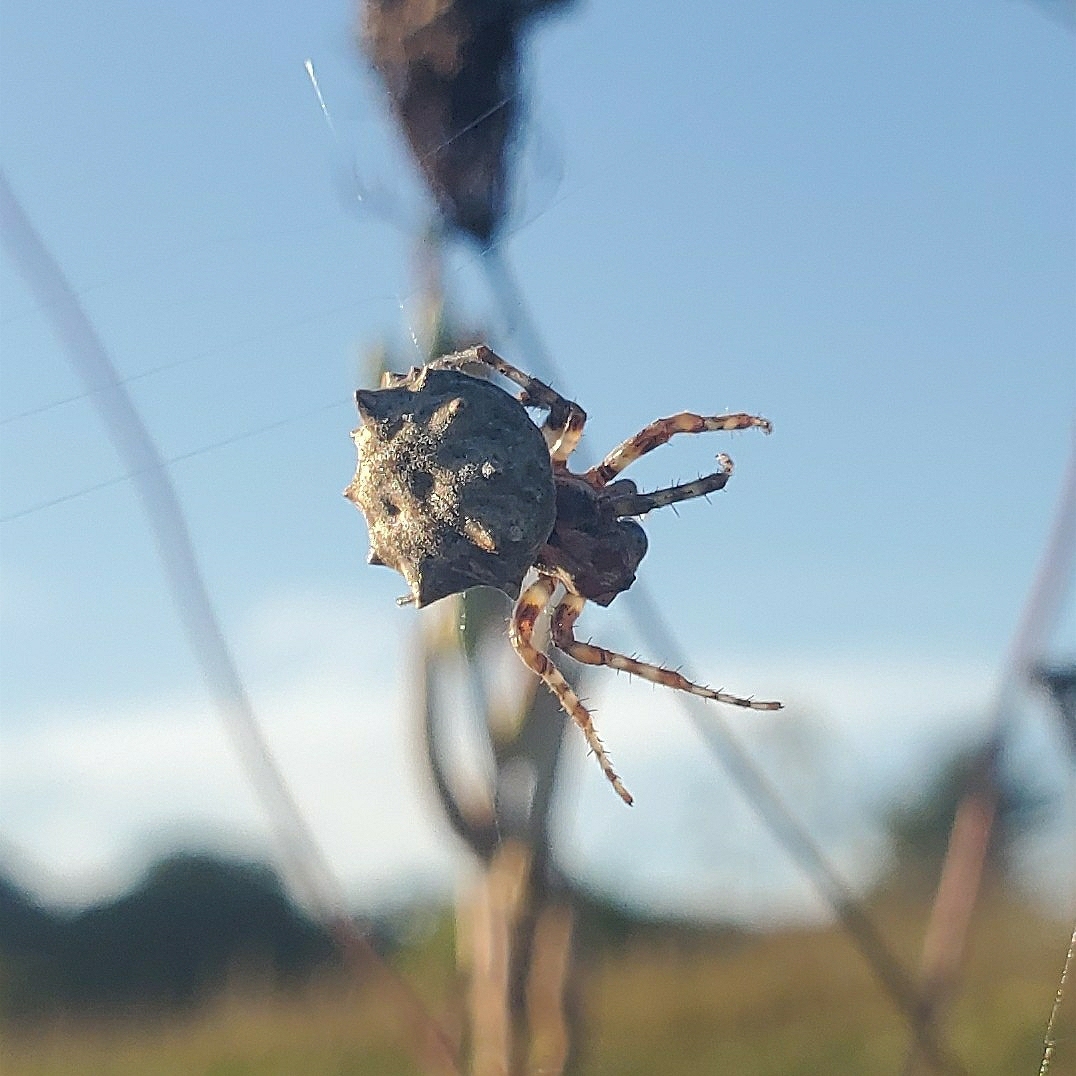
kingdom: Animalia
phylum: Arthropoda
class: Arachnida
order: Araneae
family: Araneidae
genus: Acanthepeira
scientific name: Acanthepeira stellata
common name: Starbellied orbweaver
